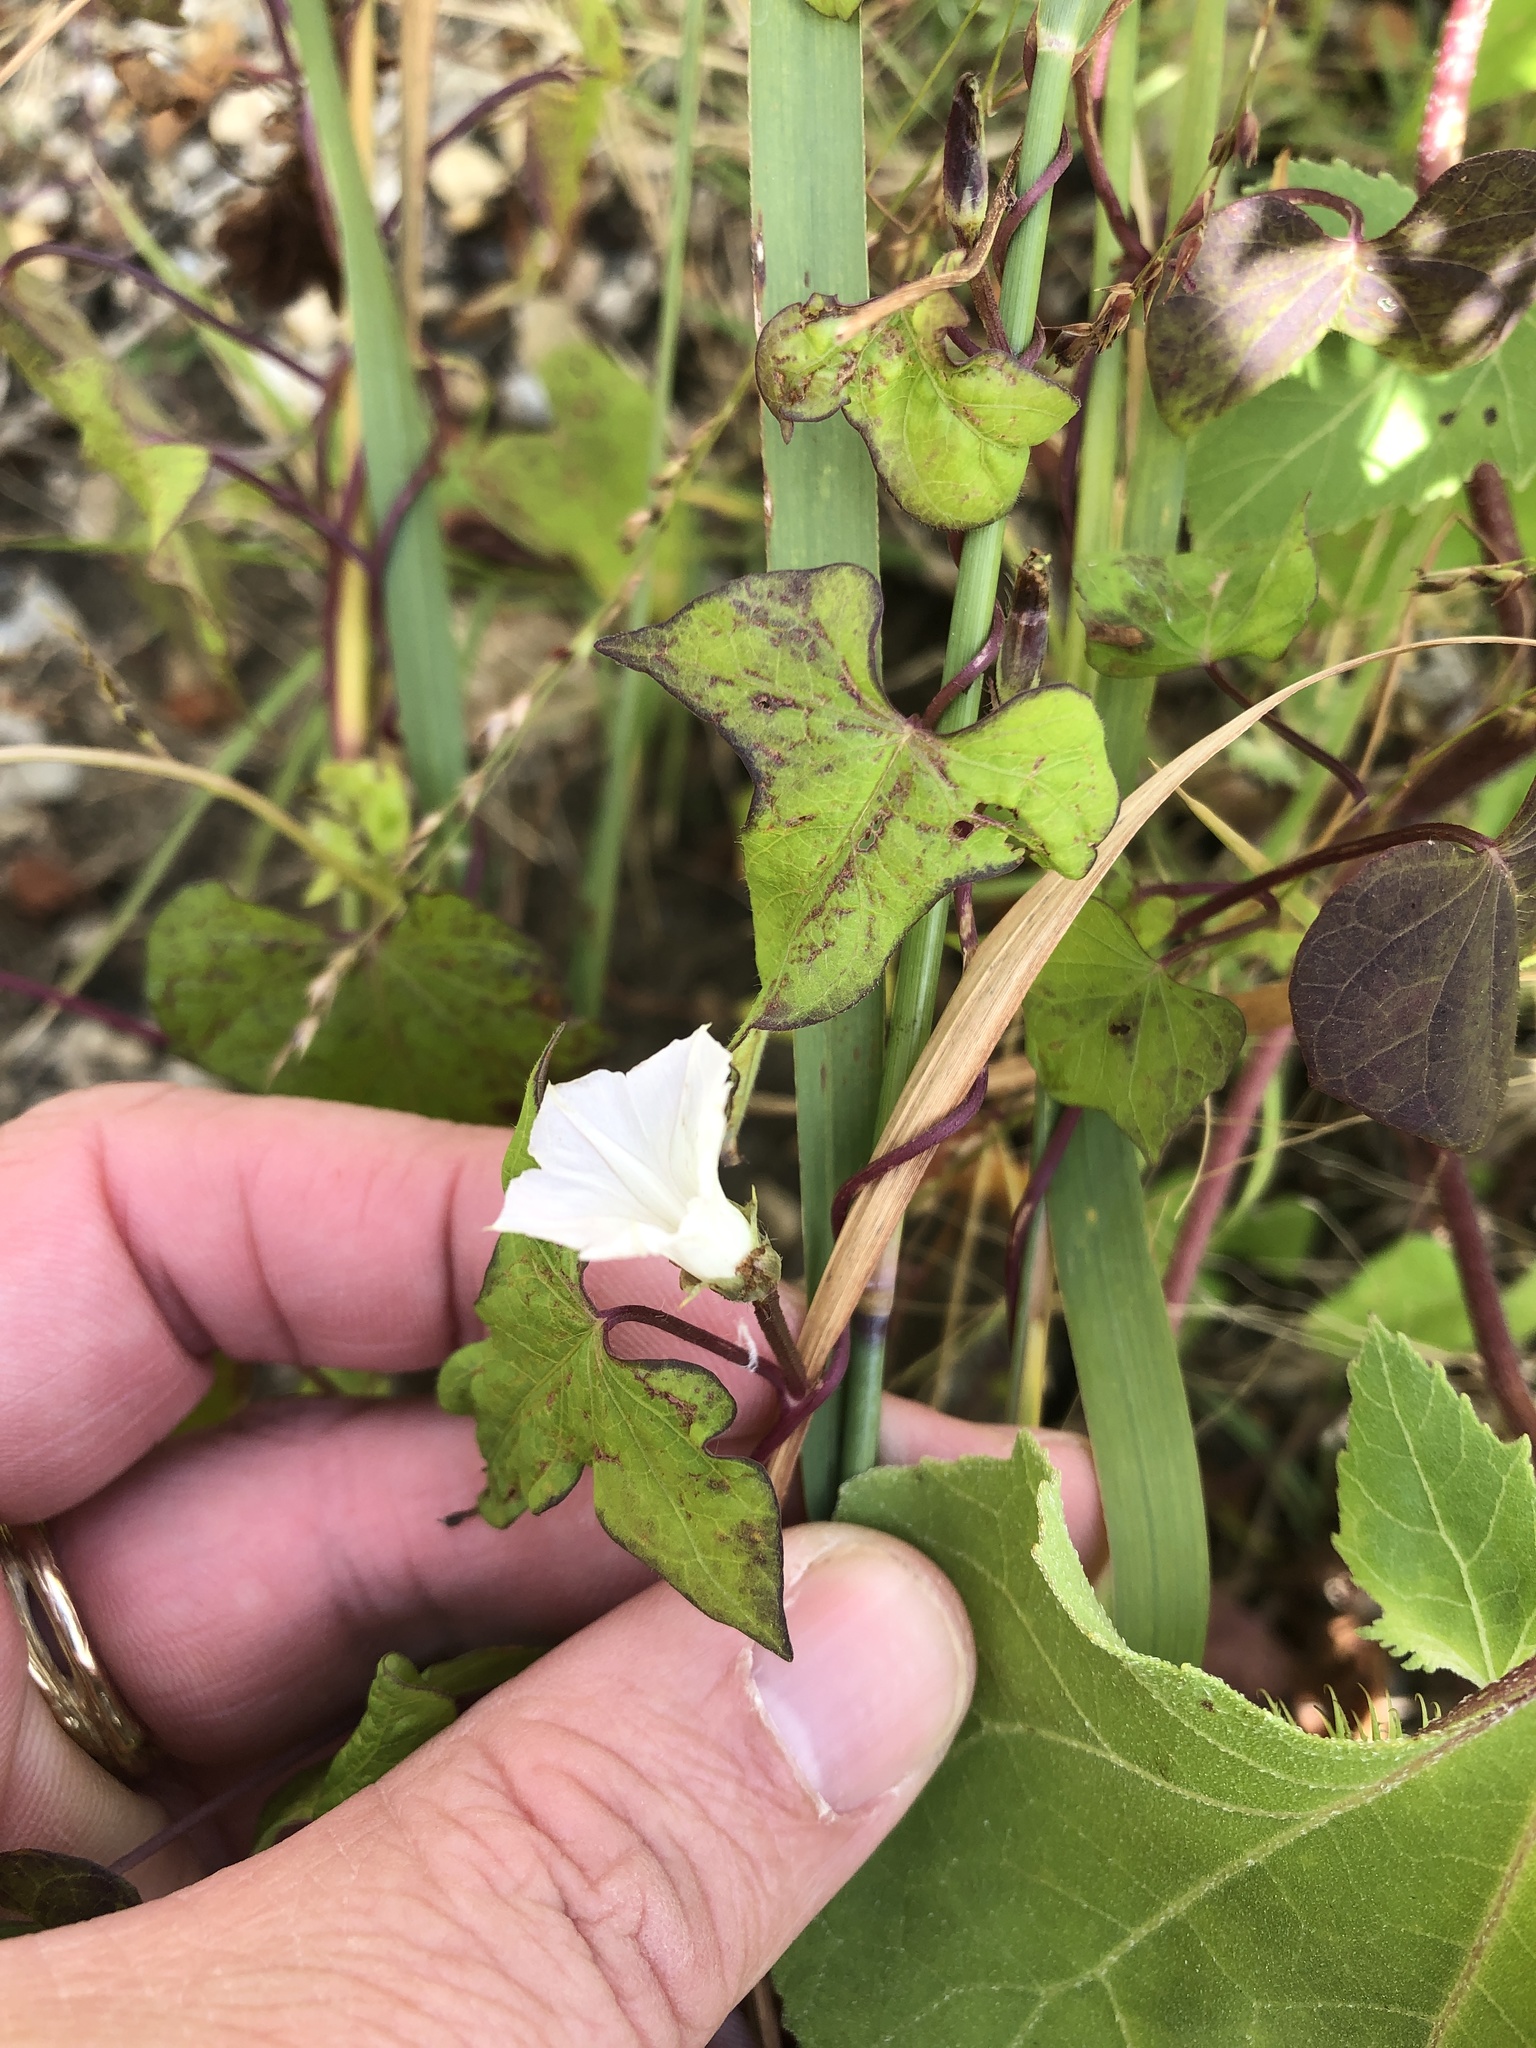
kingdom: Plantae
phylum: Tracheophyta
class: Magnoliopsida
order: Solanales
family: Convolvulaceae
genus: Ipomoea
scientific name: Ipomoea lacunosa
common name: White morning-glory
